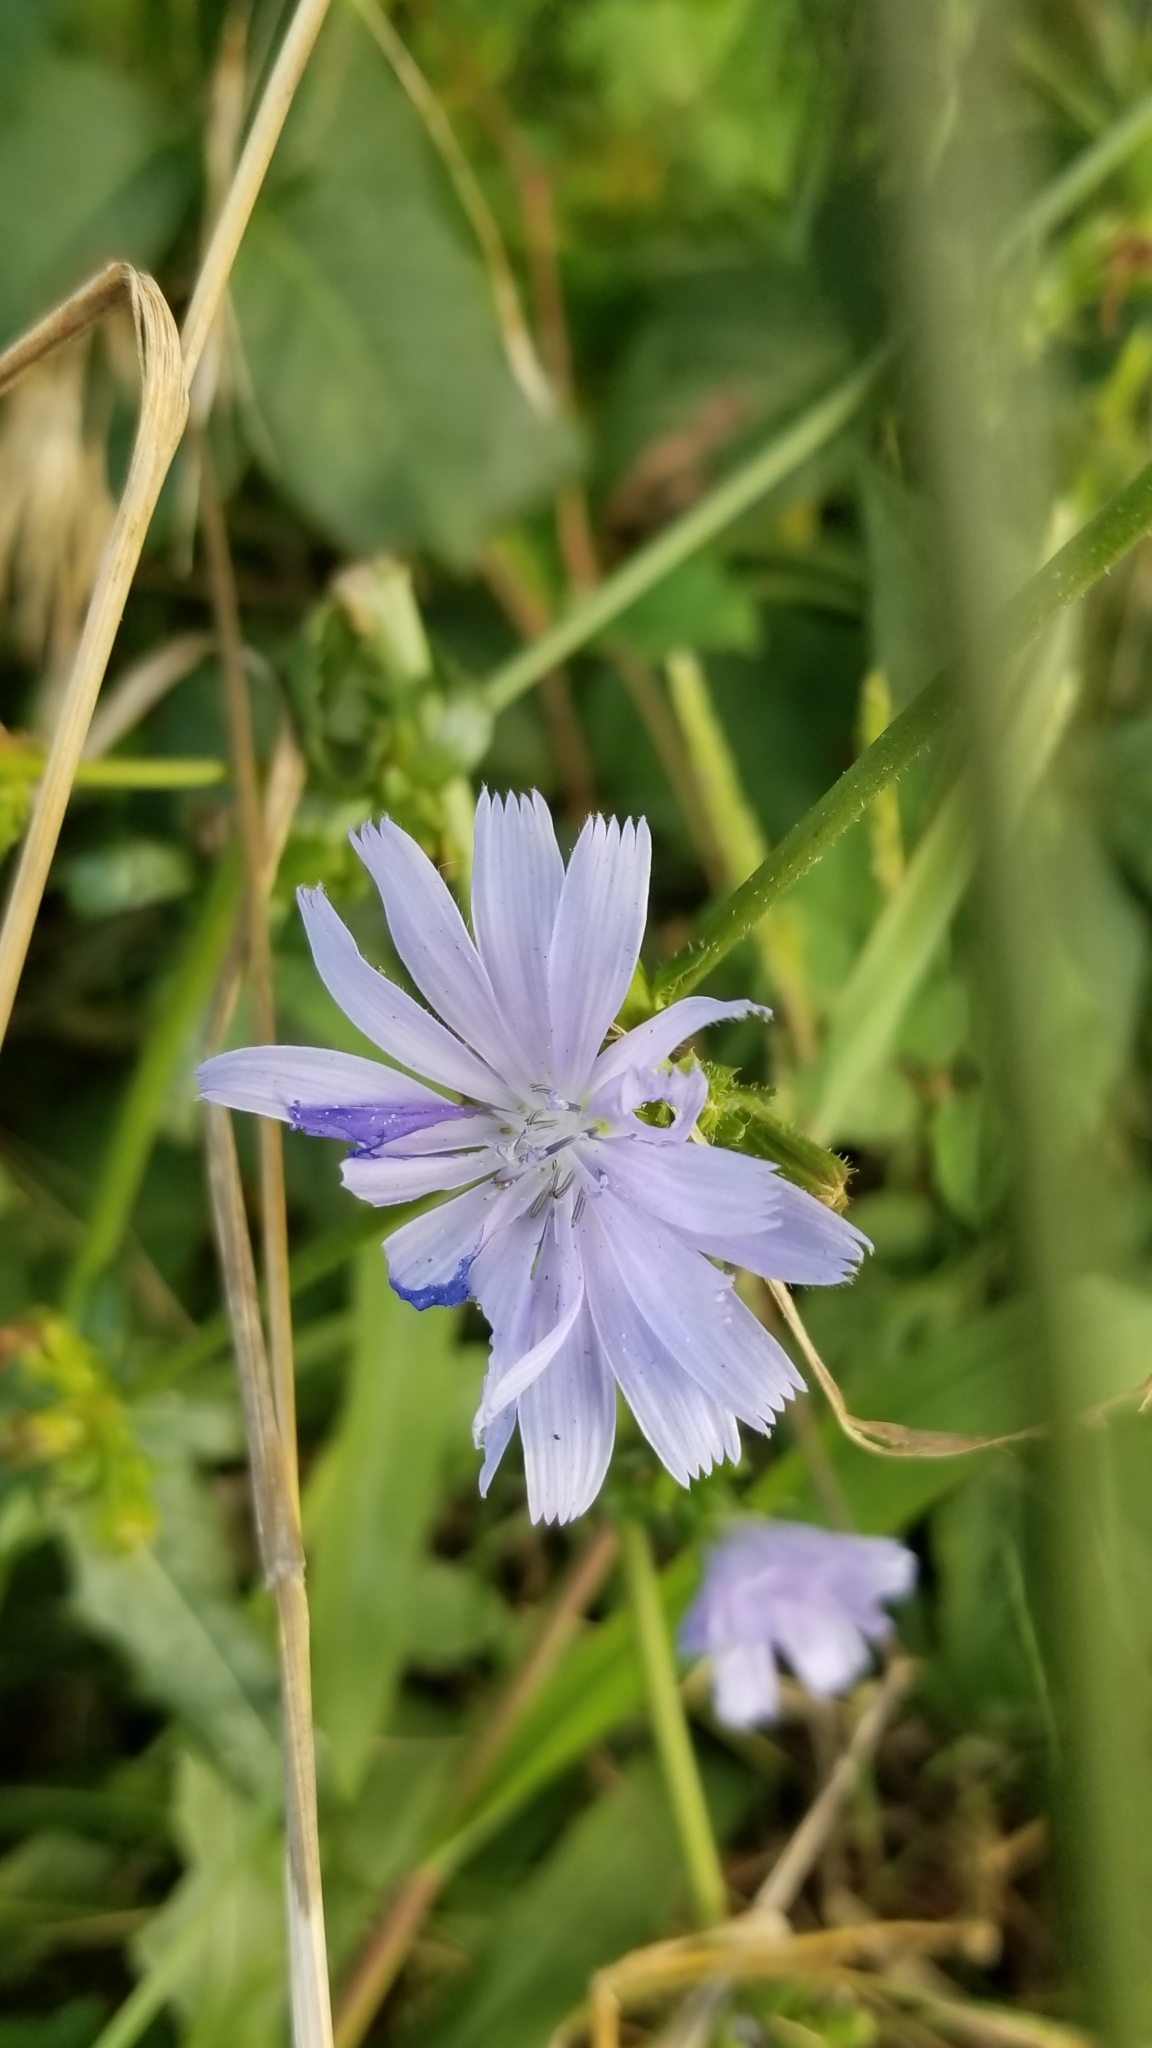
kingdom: Plantae
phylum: Tracheophyta
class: Magnoliopsida
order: Asterales
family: Asteraceae
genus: Cichorium
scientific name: Cichorium intybus
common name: Chicory
